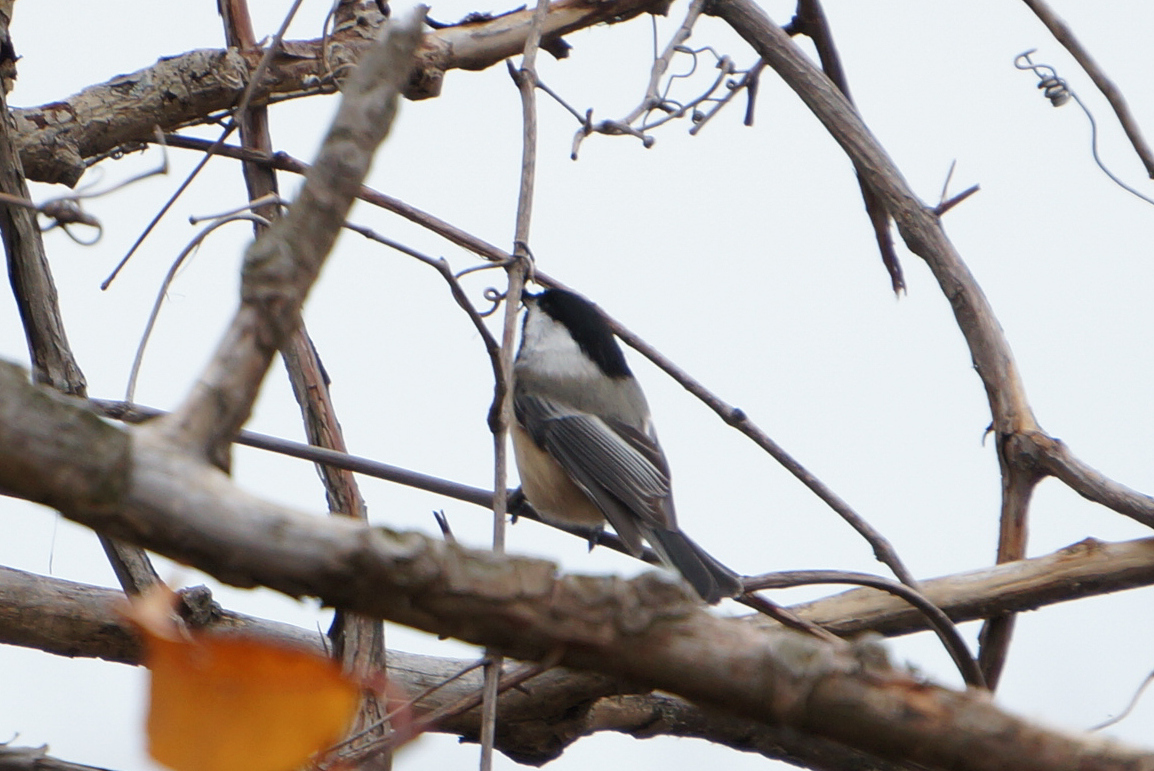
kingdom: Animalia
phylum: Chordata
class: Aves
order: Passeriformes
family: Paridae
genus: Poecile
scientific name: Poecile atricapillus
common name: Black-capped chickadee
